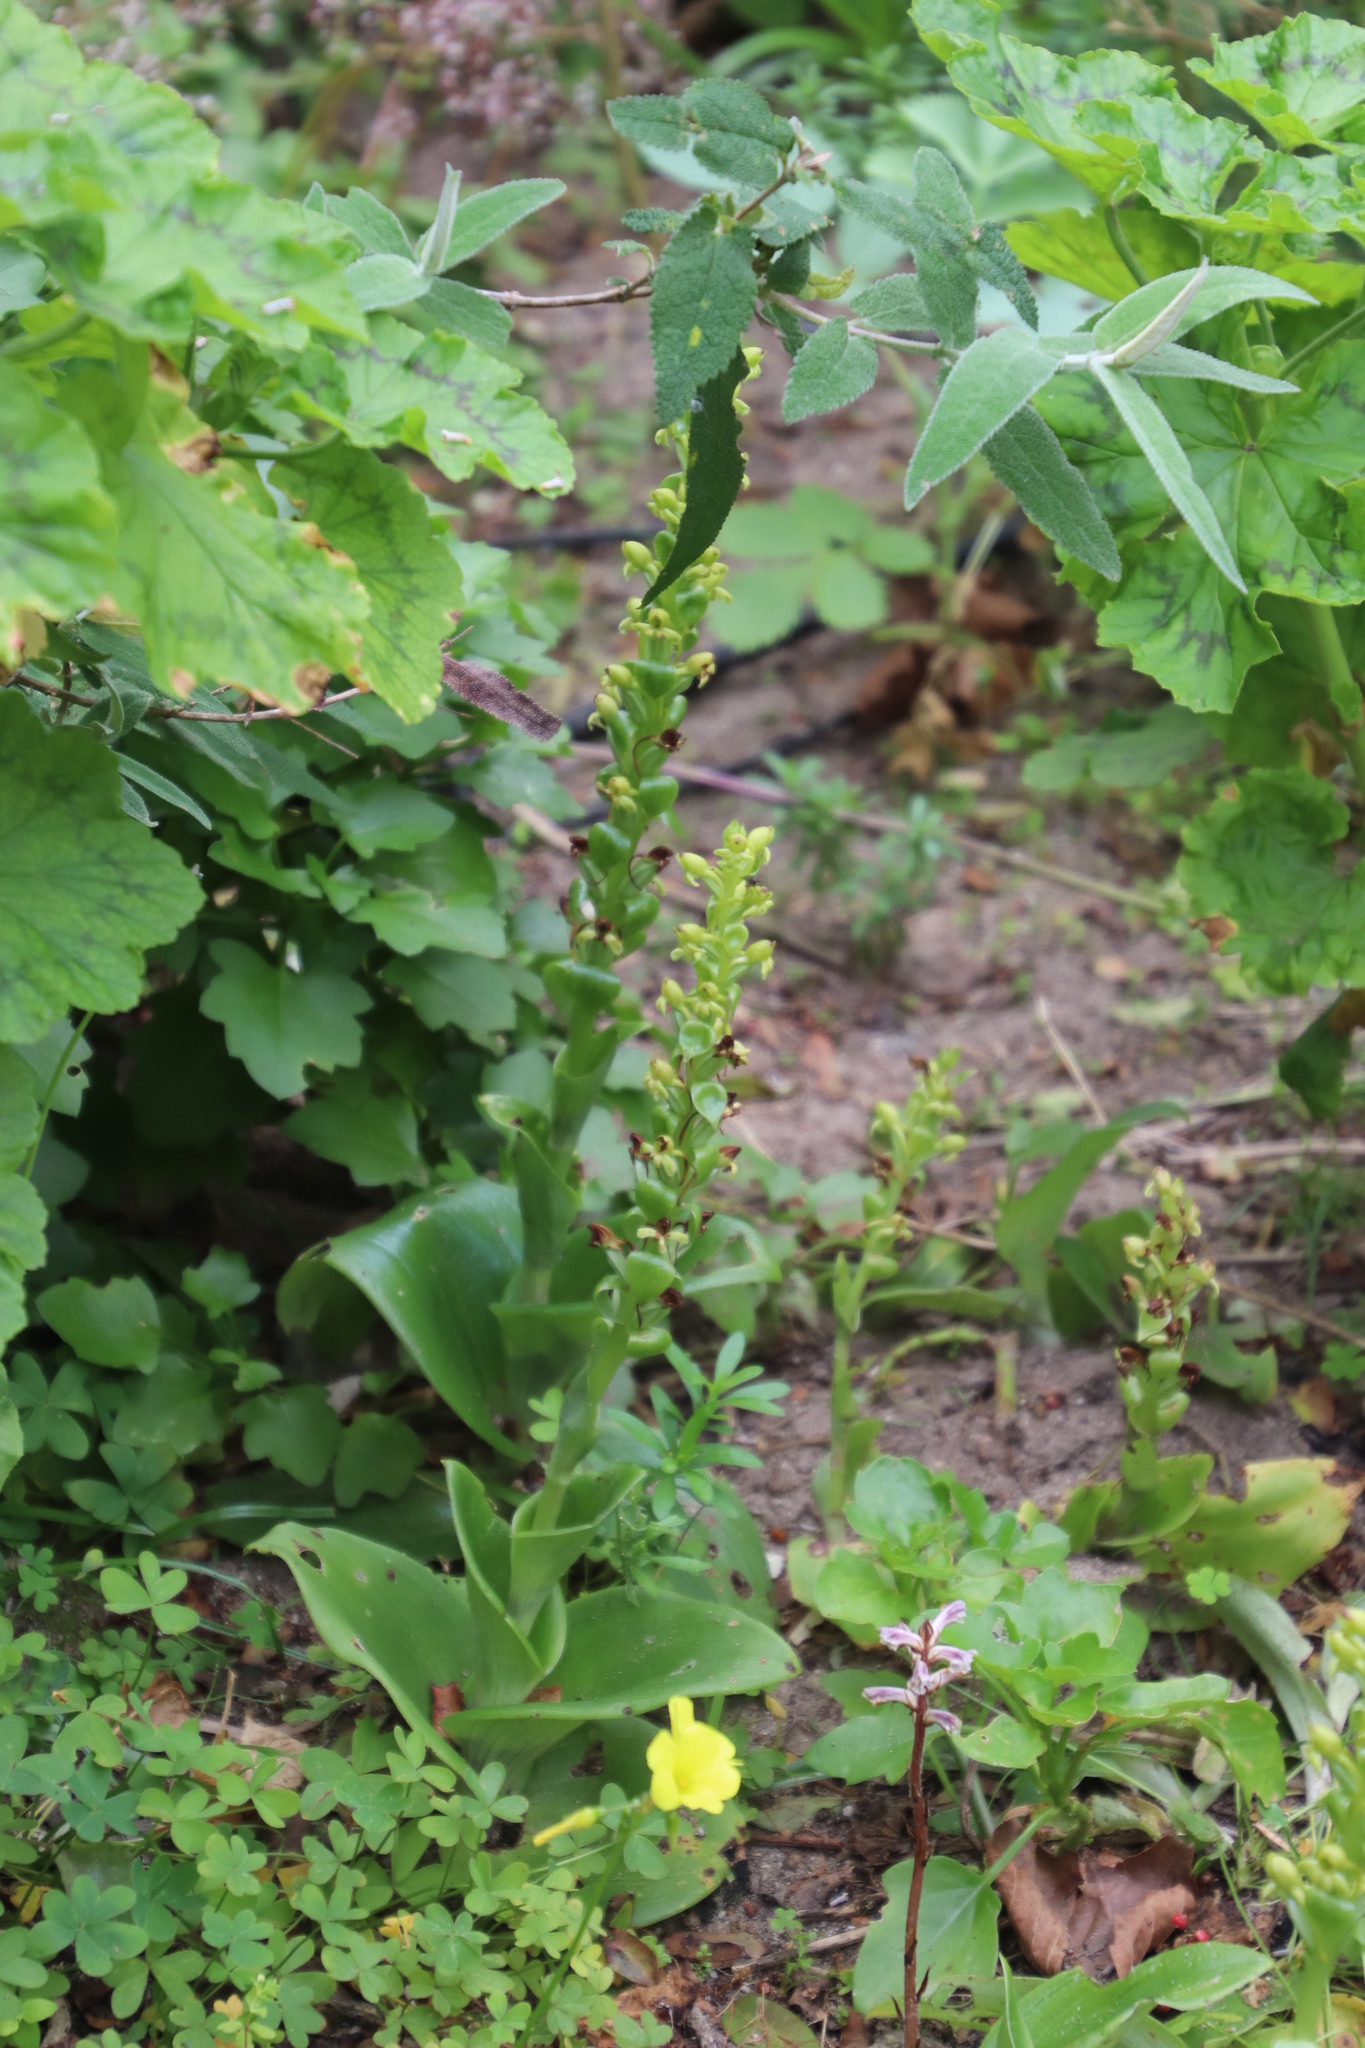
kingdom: Plantae
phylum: Tracheophyta
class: Liliopsida
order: Asparagales
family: Orchidaceae
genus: Satyrium
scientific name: Satyrium odorum
